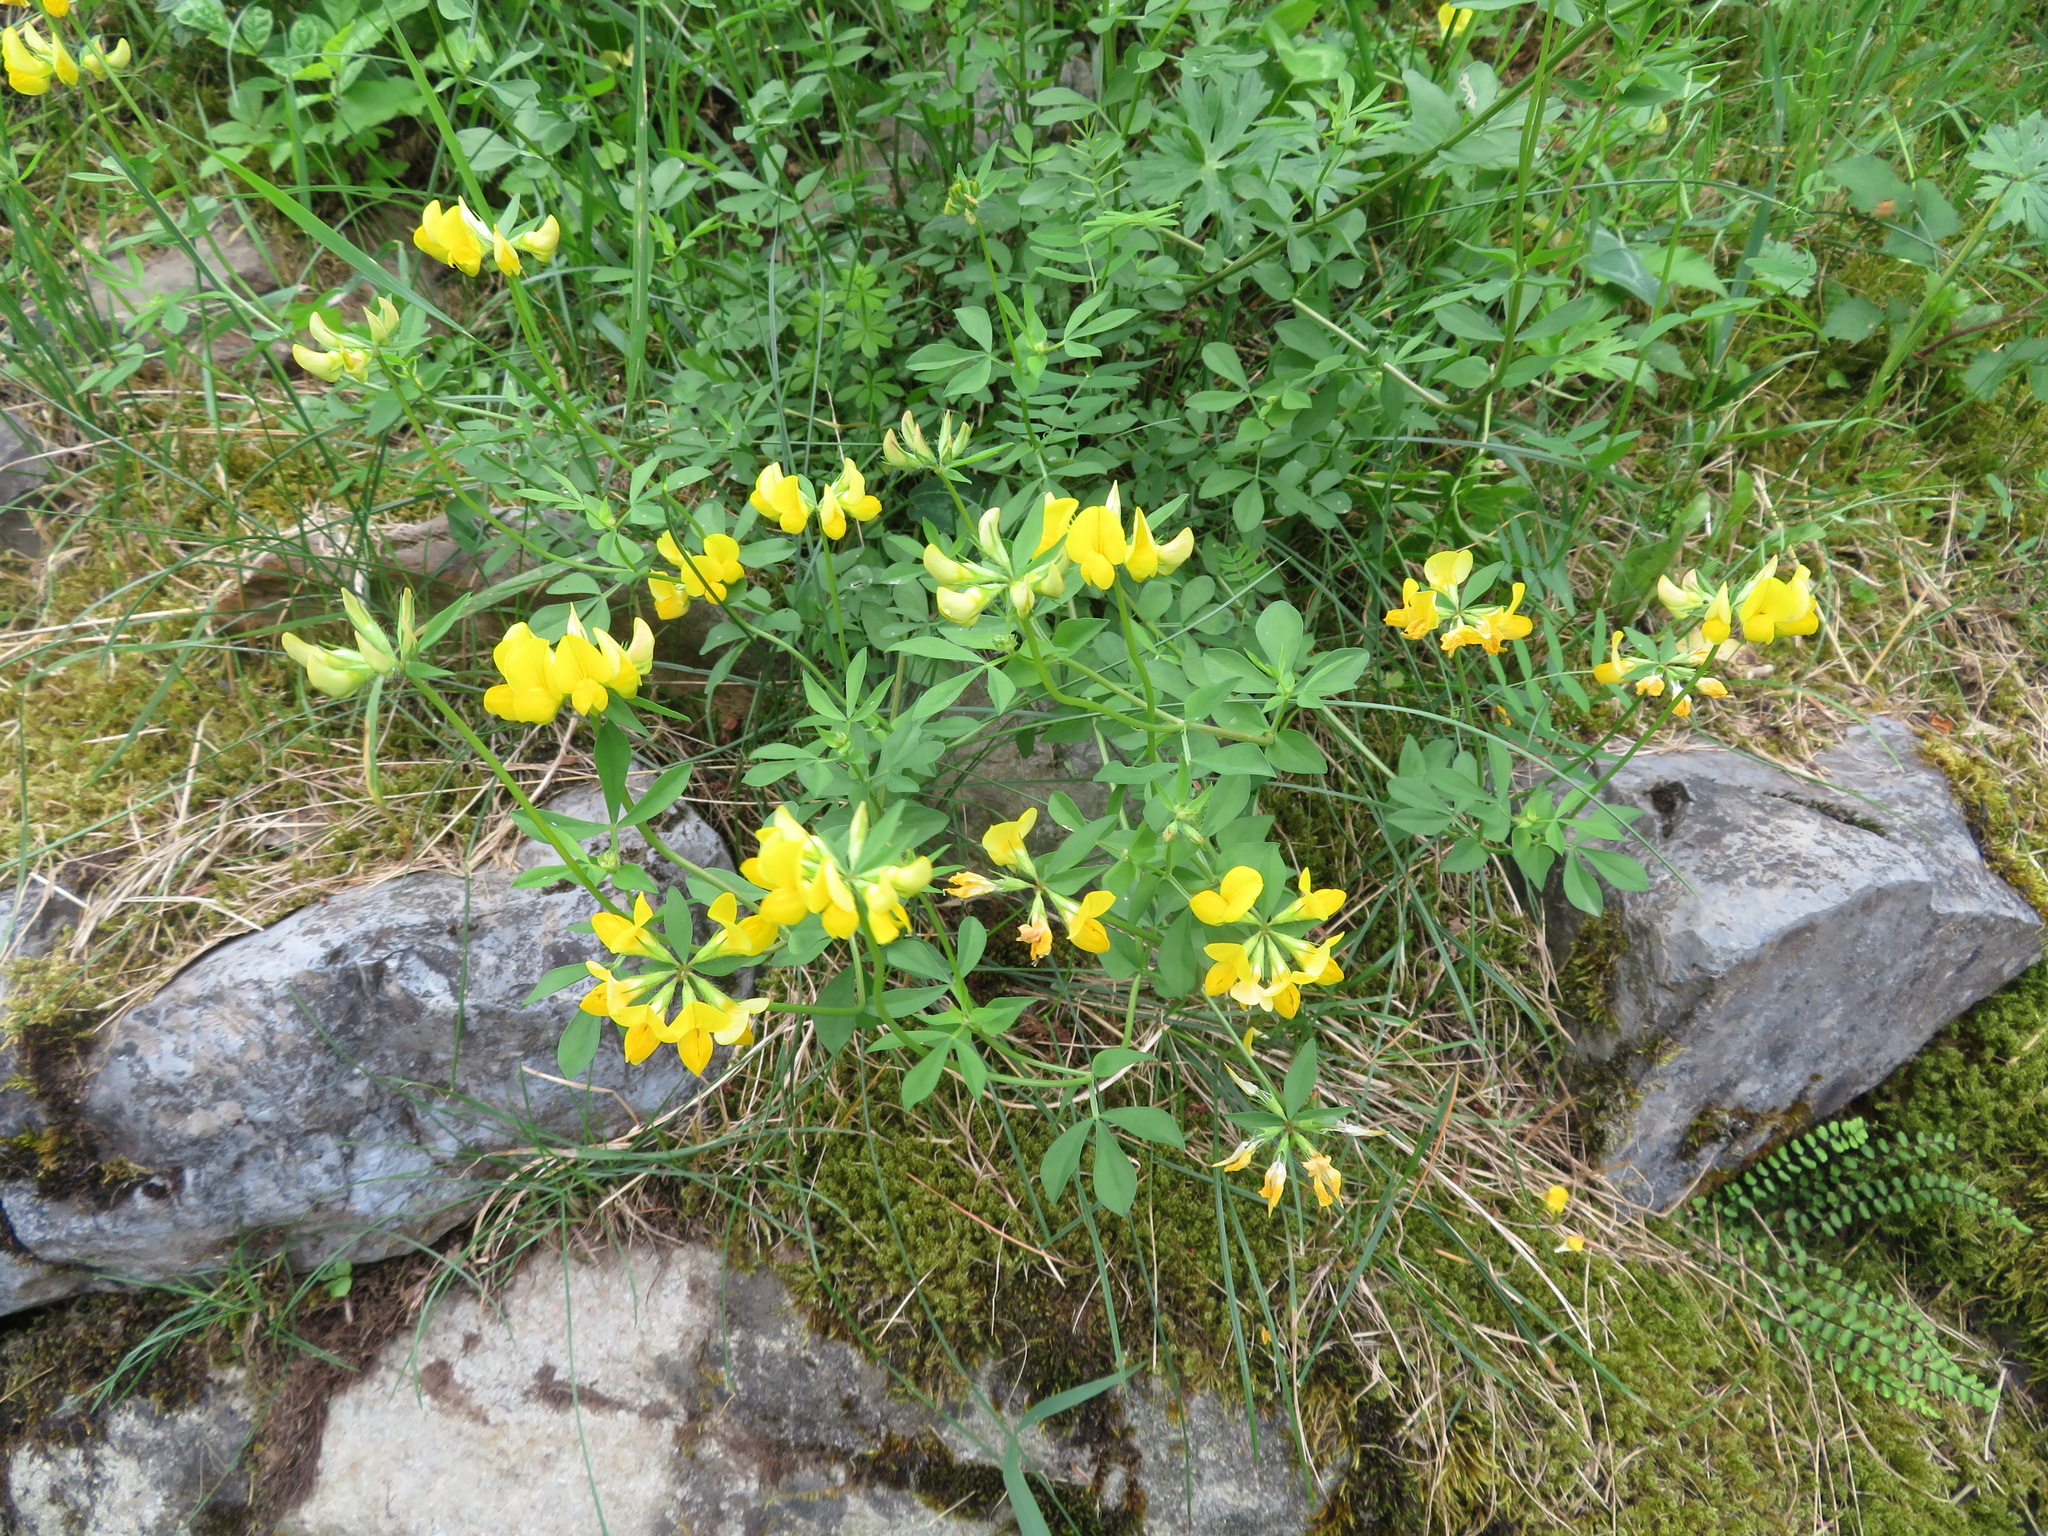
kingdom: Plantae
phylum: Tracheophyta
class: Magnoliopsida
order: Fabales
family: Fabaceae
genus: Lotus
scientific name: Lotus corniculatus
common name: Common bird's-foot-trefoil
